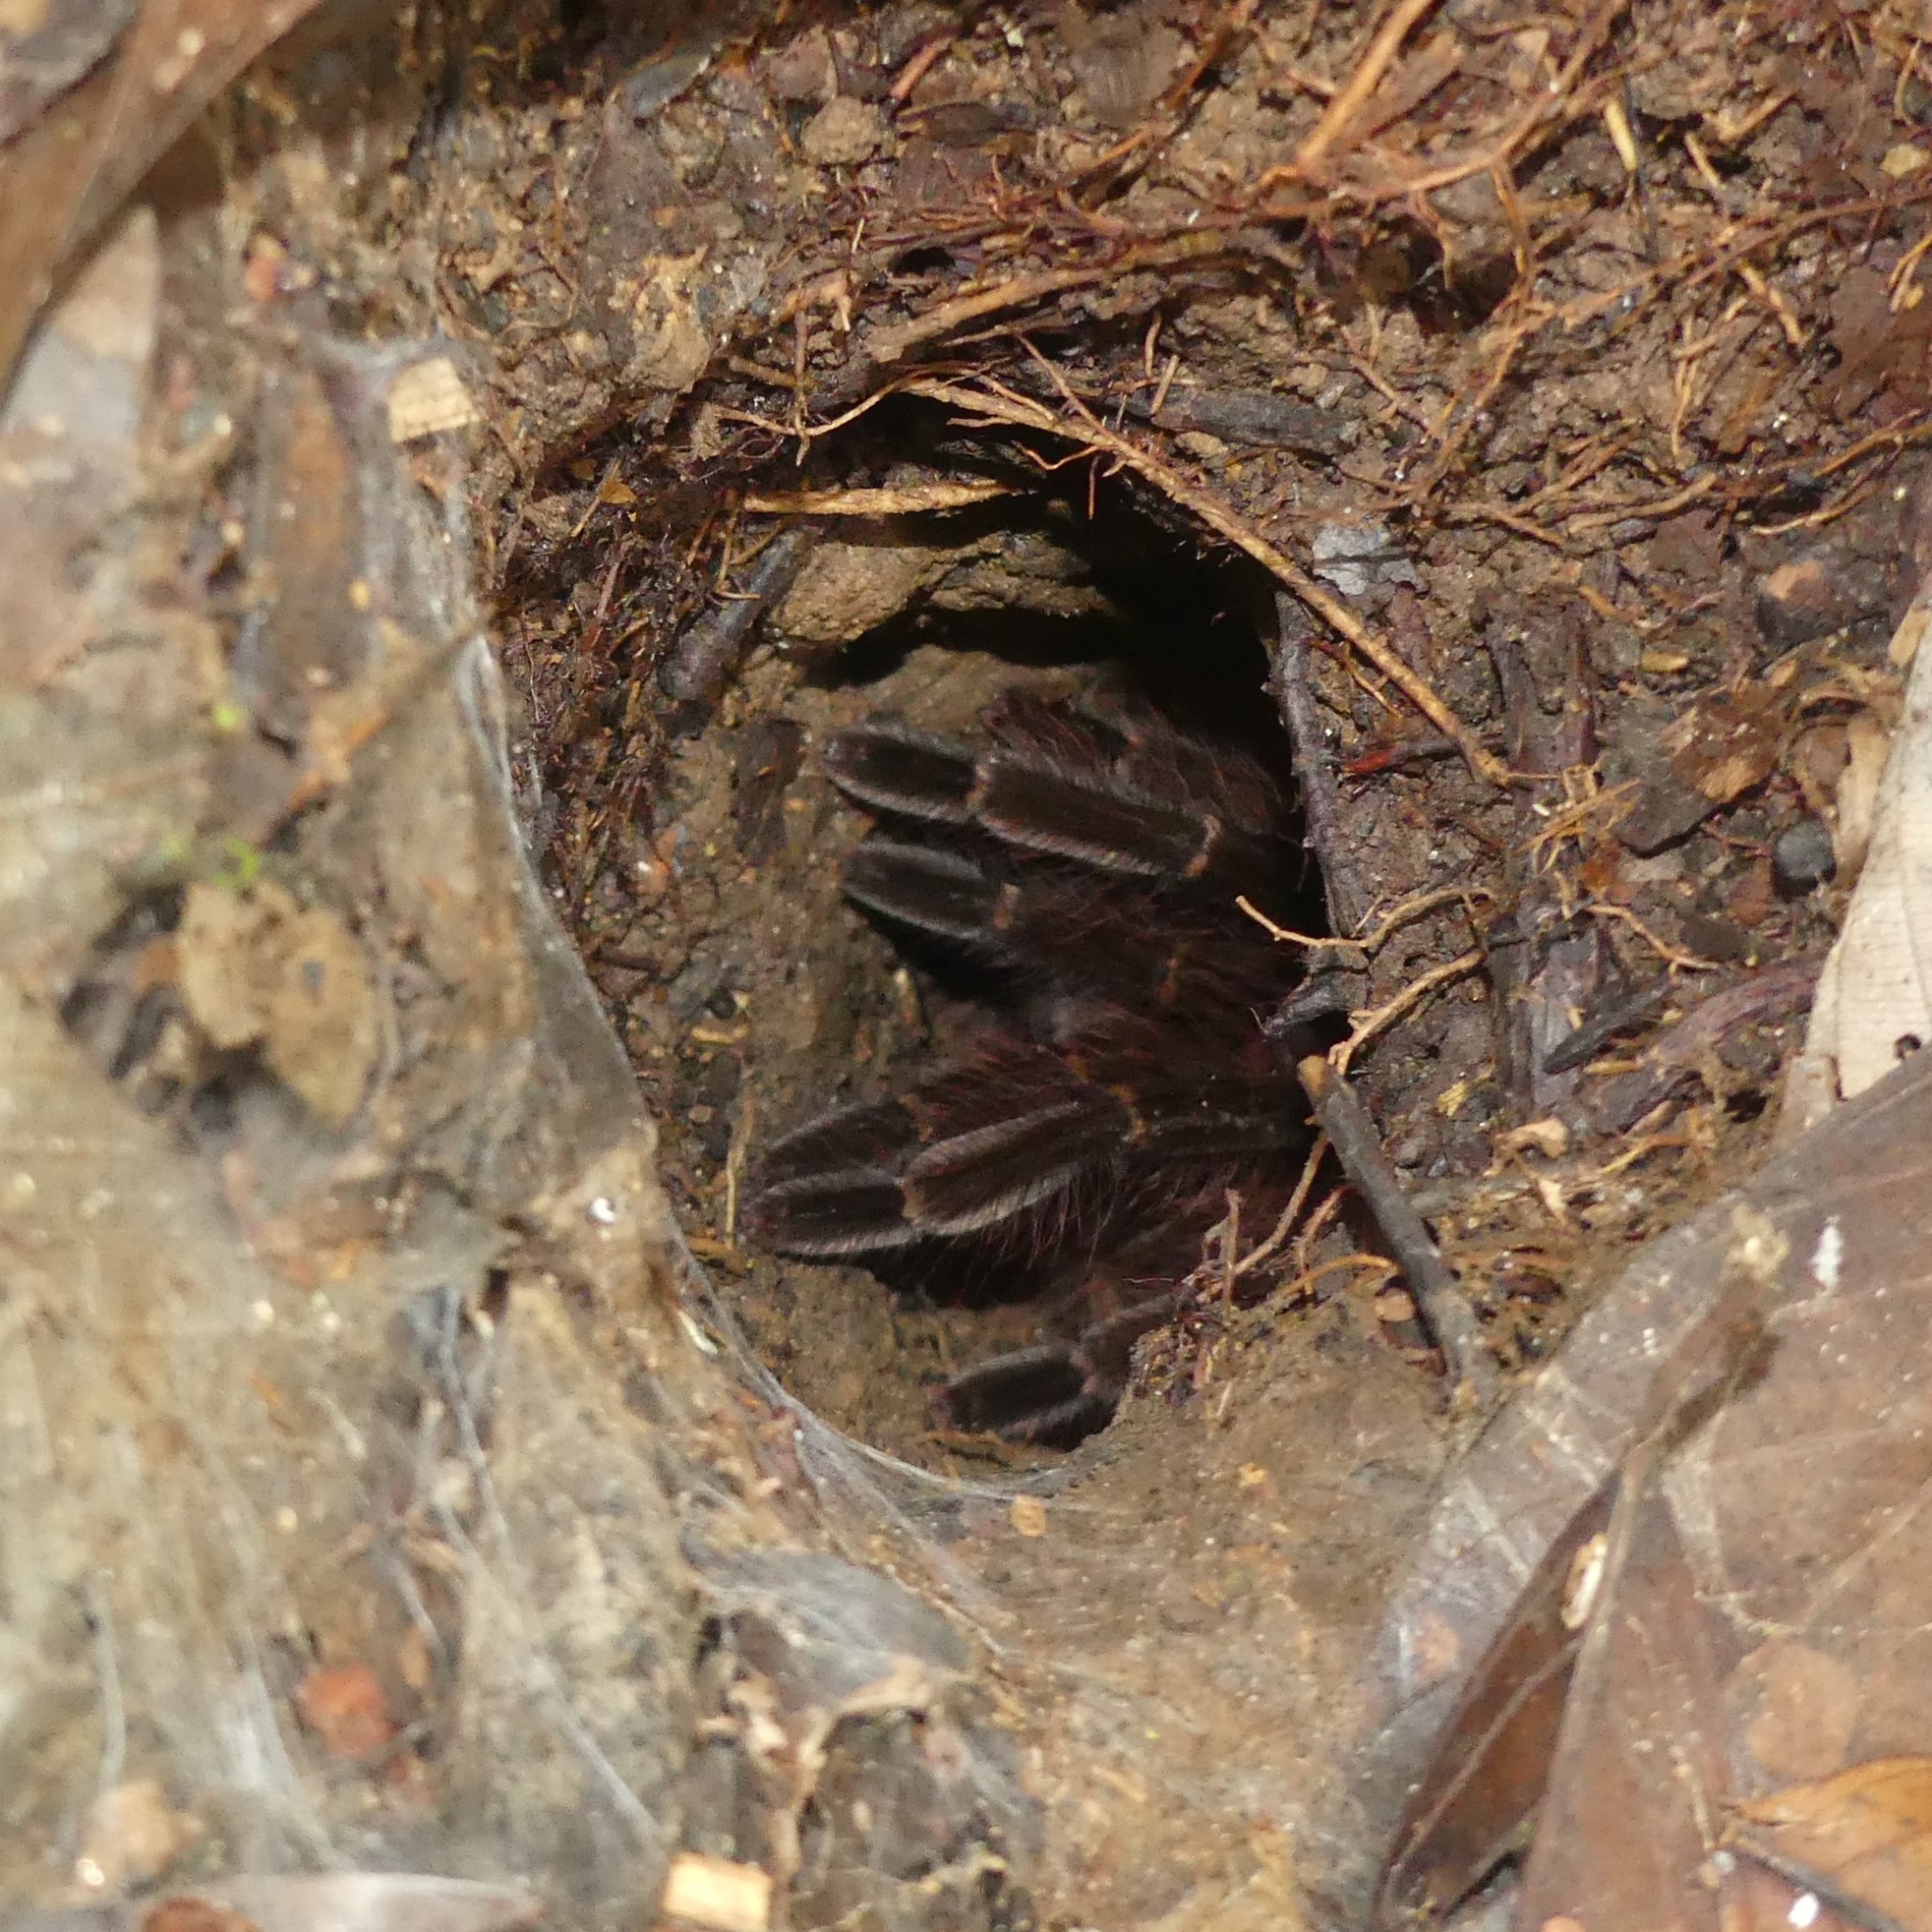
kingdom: Animalia
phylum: Arthropoda
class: Arachnida
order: Araneae
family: Theraphosidae
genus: Ephebopus
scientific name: Ephebopus rufescens
